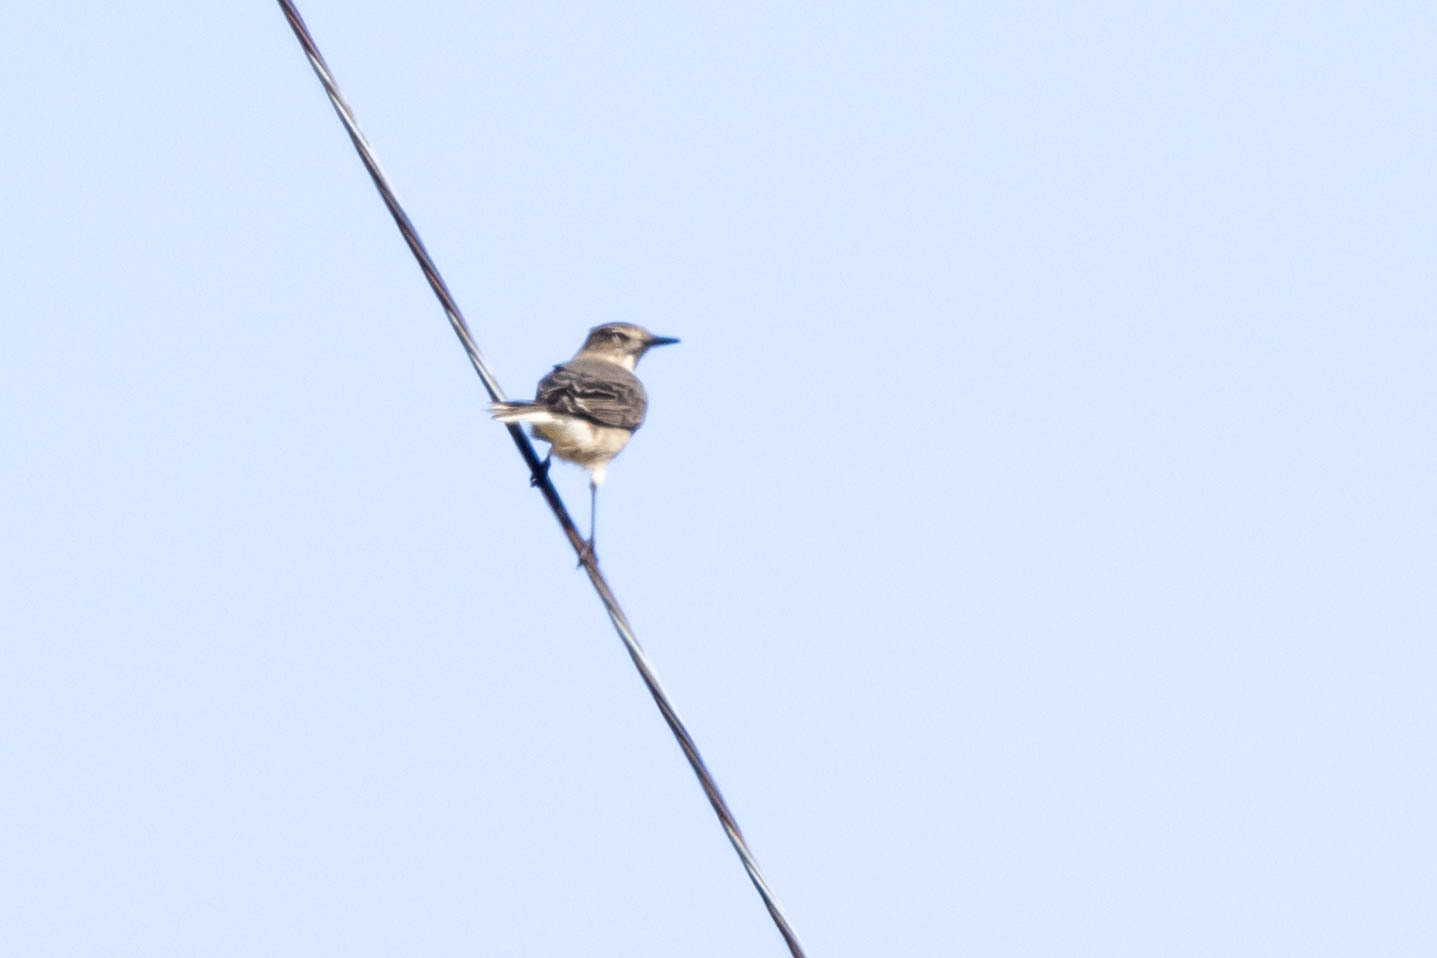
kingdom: Animalia
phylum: Chordata
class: Aves
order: Passeriformes
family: Tyrannidae
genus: Agriornis
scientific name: Agriornis montanus
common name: Black-billed shrike-tyrant
